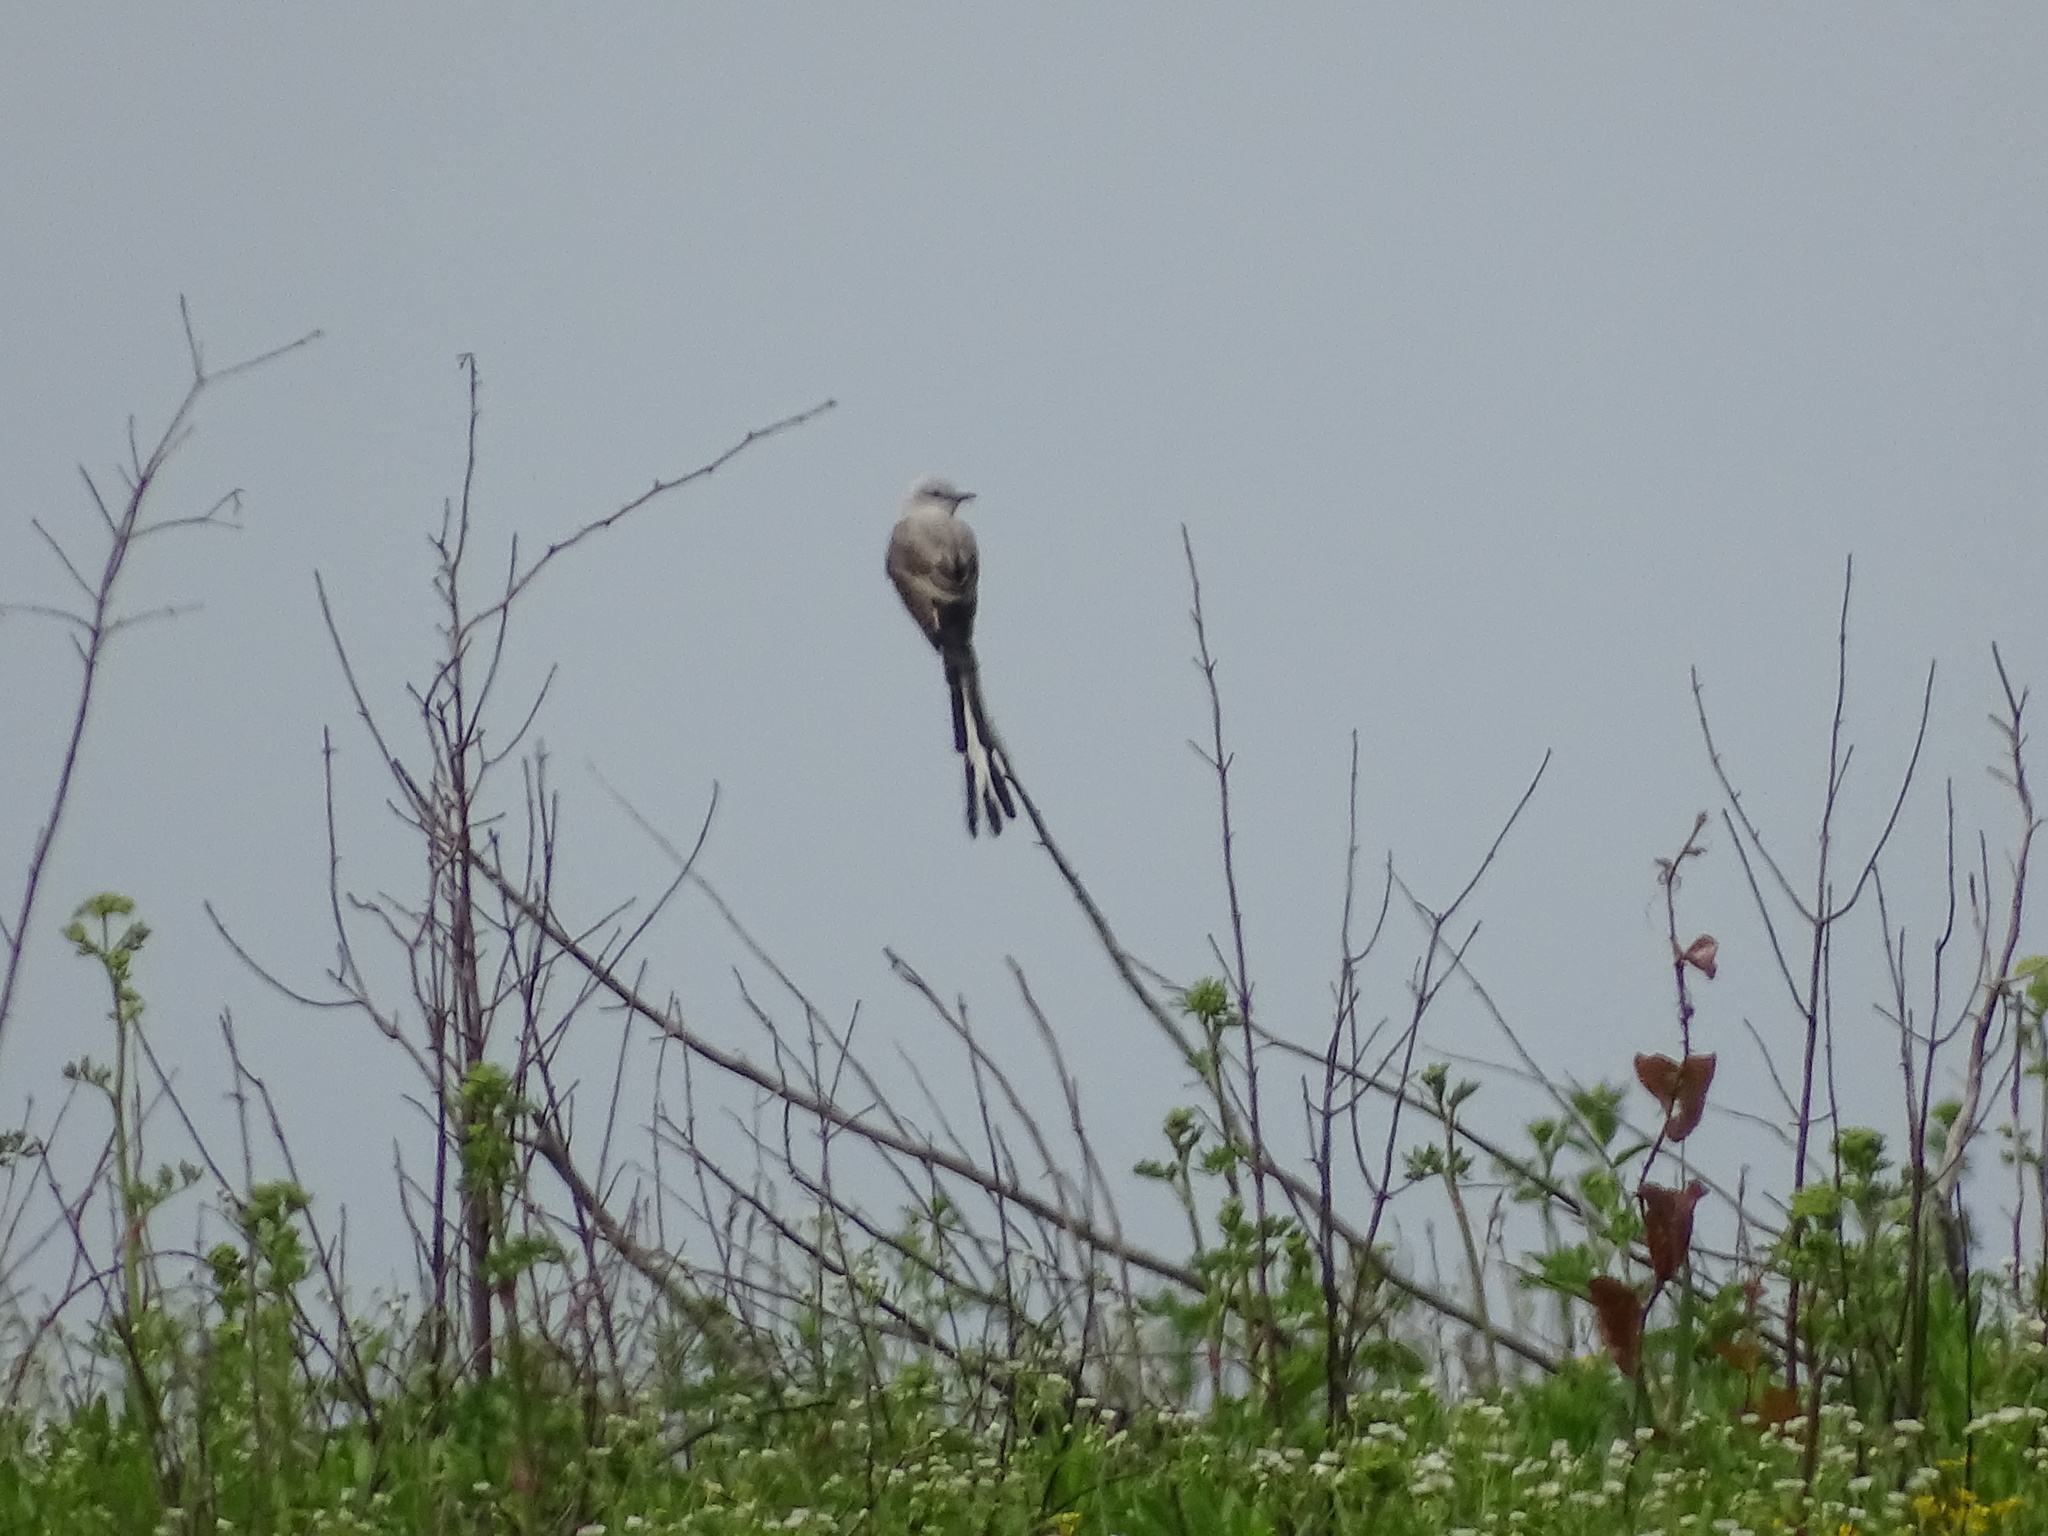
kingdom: Animalia
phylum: Chordata
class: Aves
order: Passeriformes
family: Tyrannidae
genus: Tyrannus
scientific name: Tyrannus forficatus
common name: Scissor-tailed flycatcher
